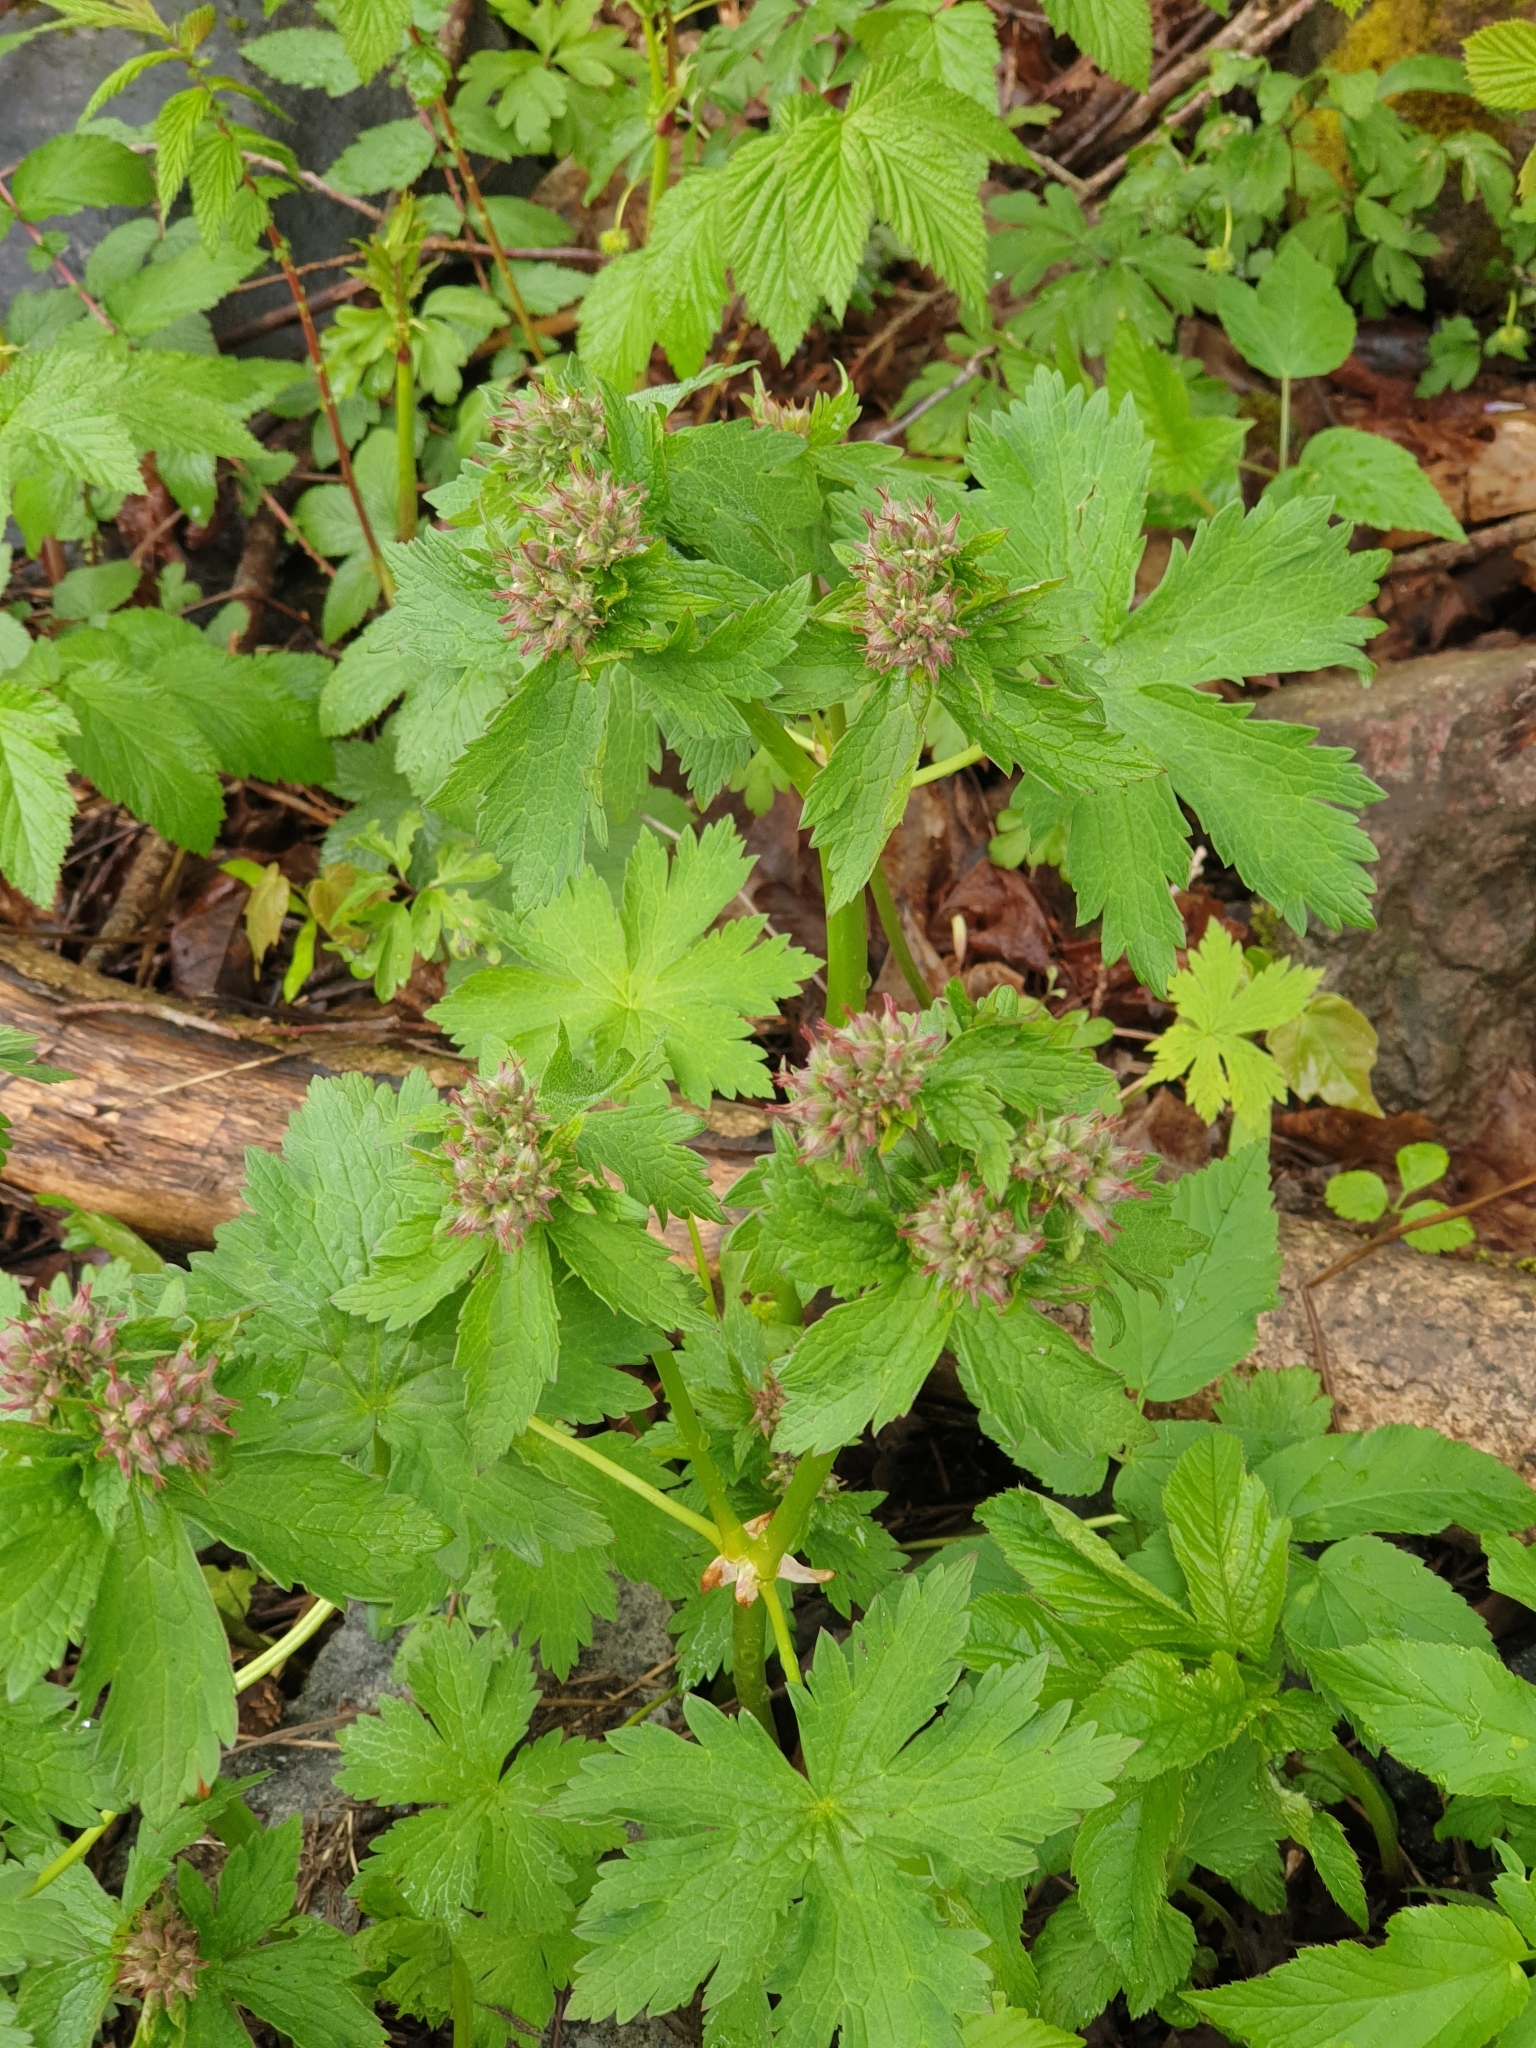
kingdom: Plantae
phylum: Tracheophyta
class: Magnoliopsida
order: Geraniales
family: Geraniaceae
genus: Geranium
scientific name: Geranium sylvaticum
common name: Wood crane's-bill
